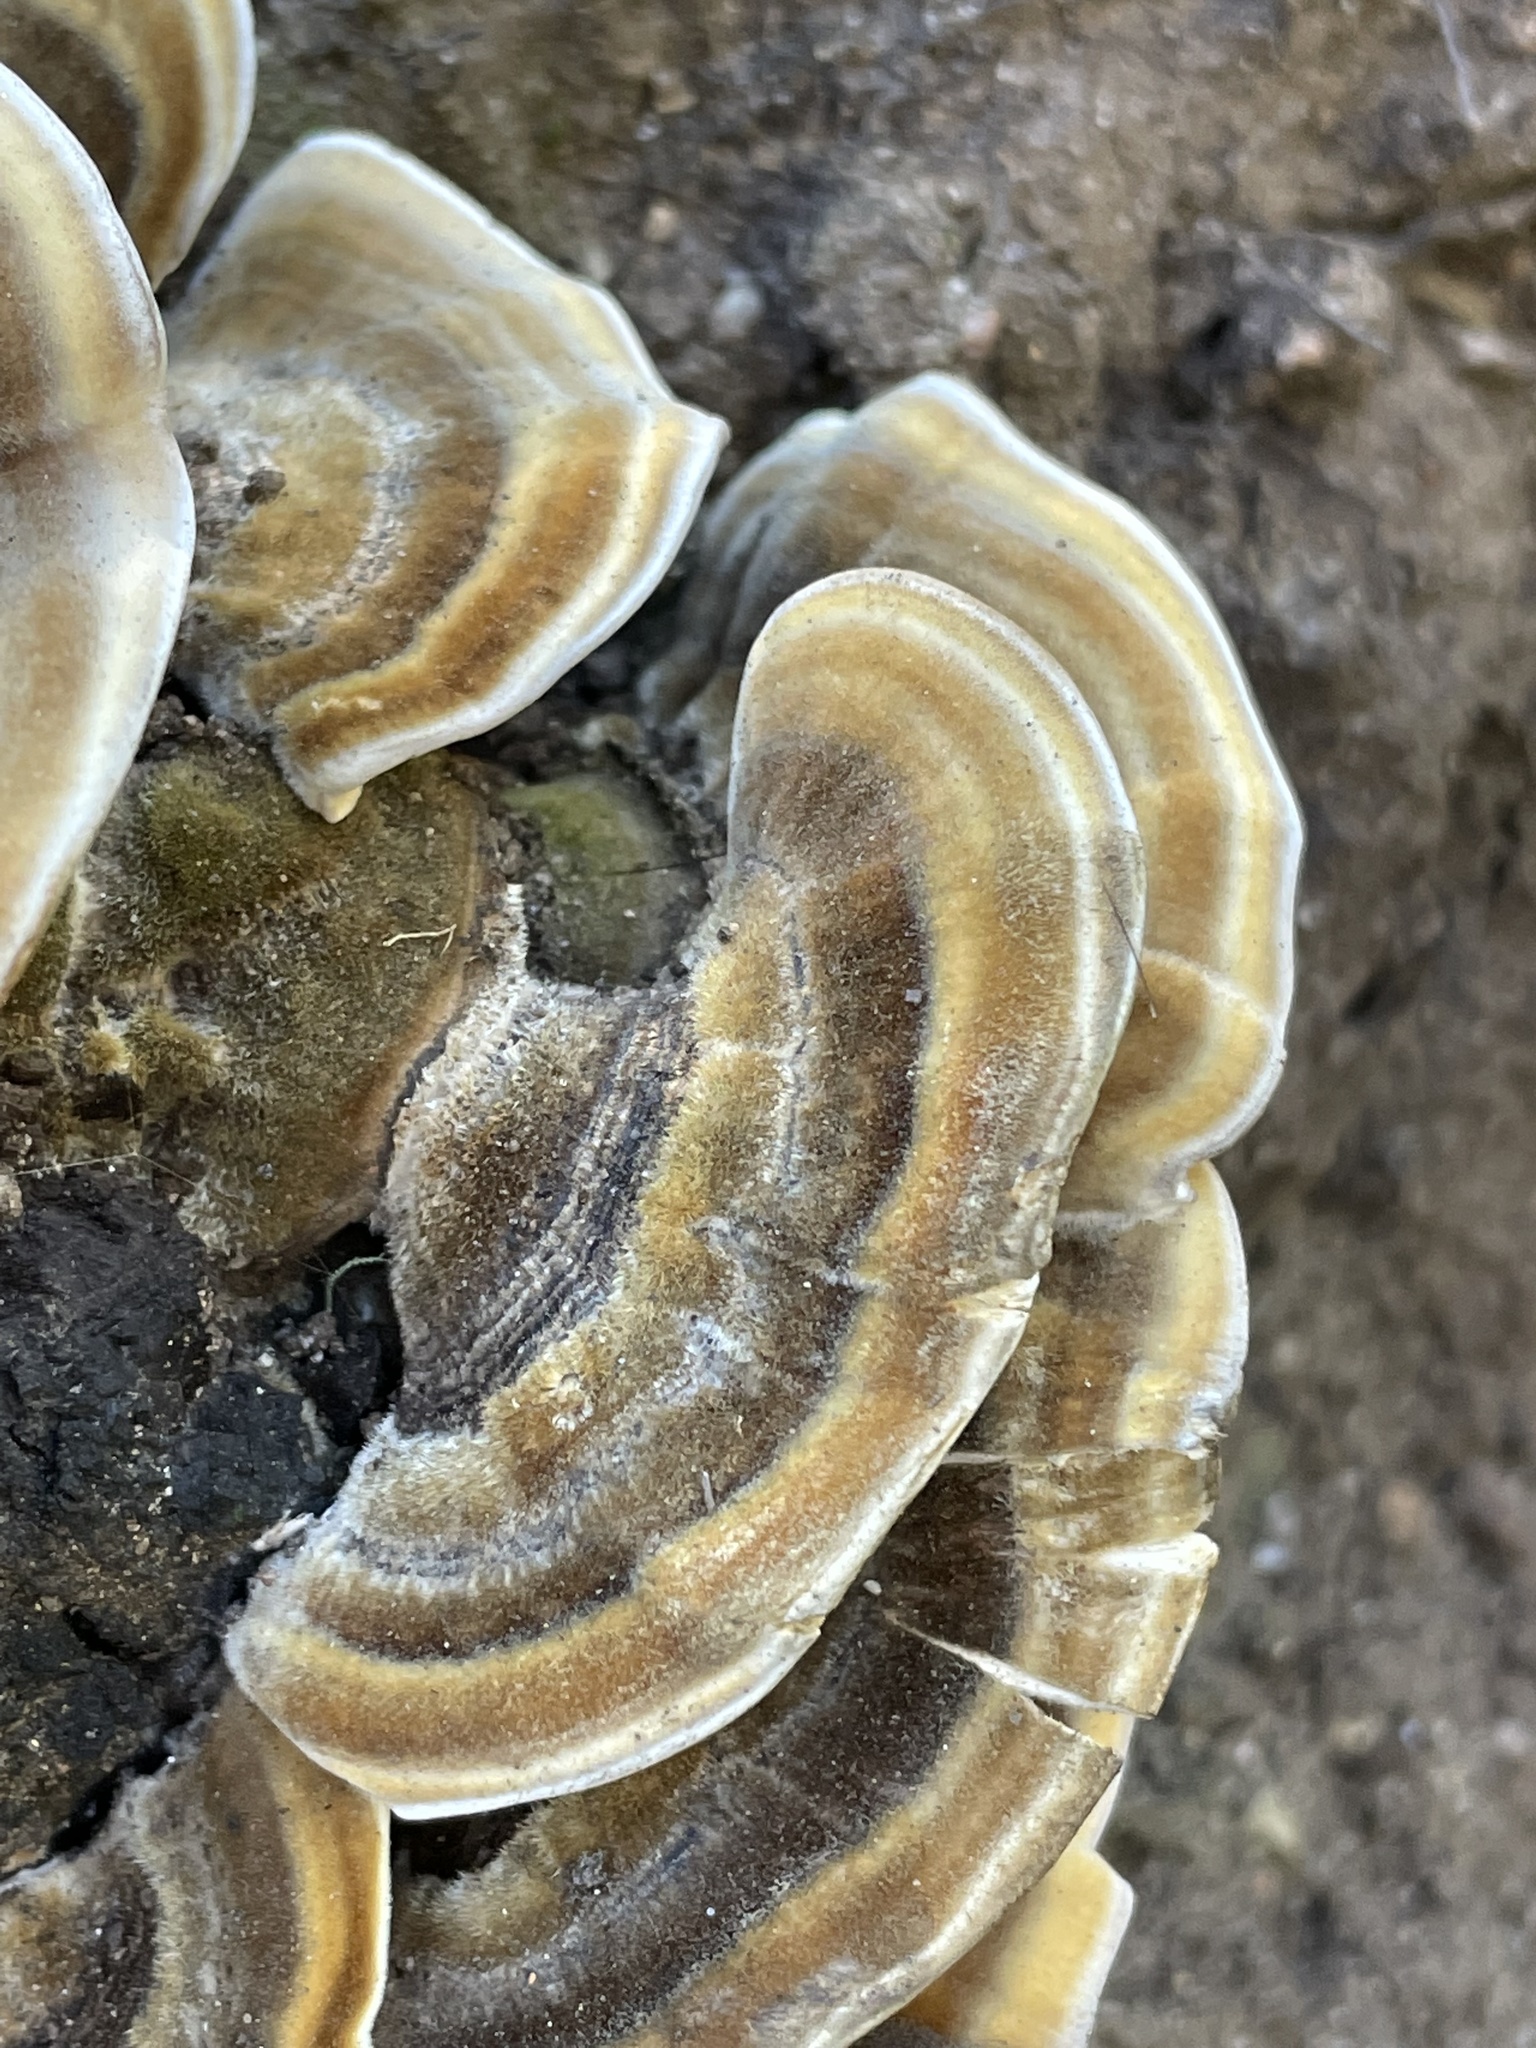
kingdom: Fungi
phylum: Basidiomycota
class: Agaricomycetes
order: Polyporales
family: Polyporaceae
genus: Trametes
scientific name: Trametes versicolor
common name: Turkeytail
